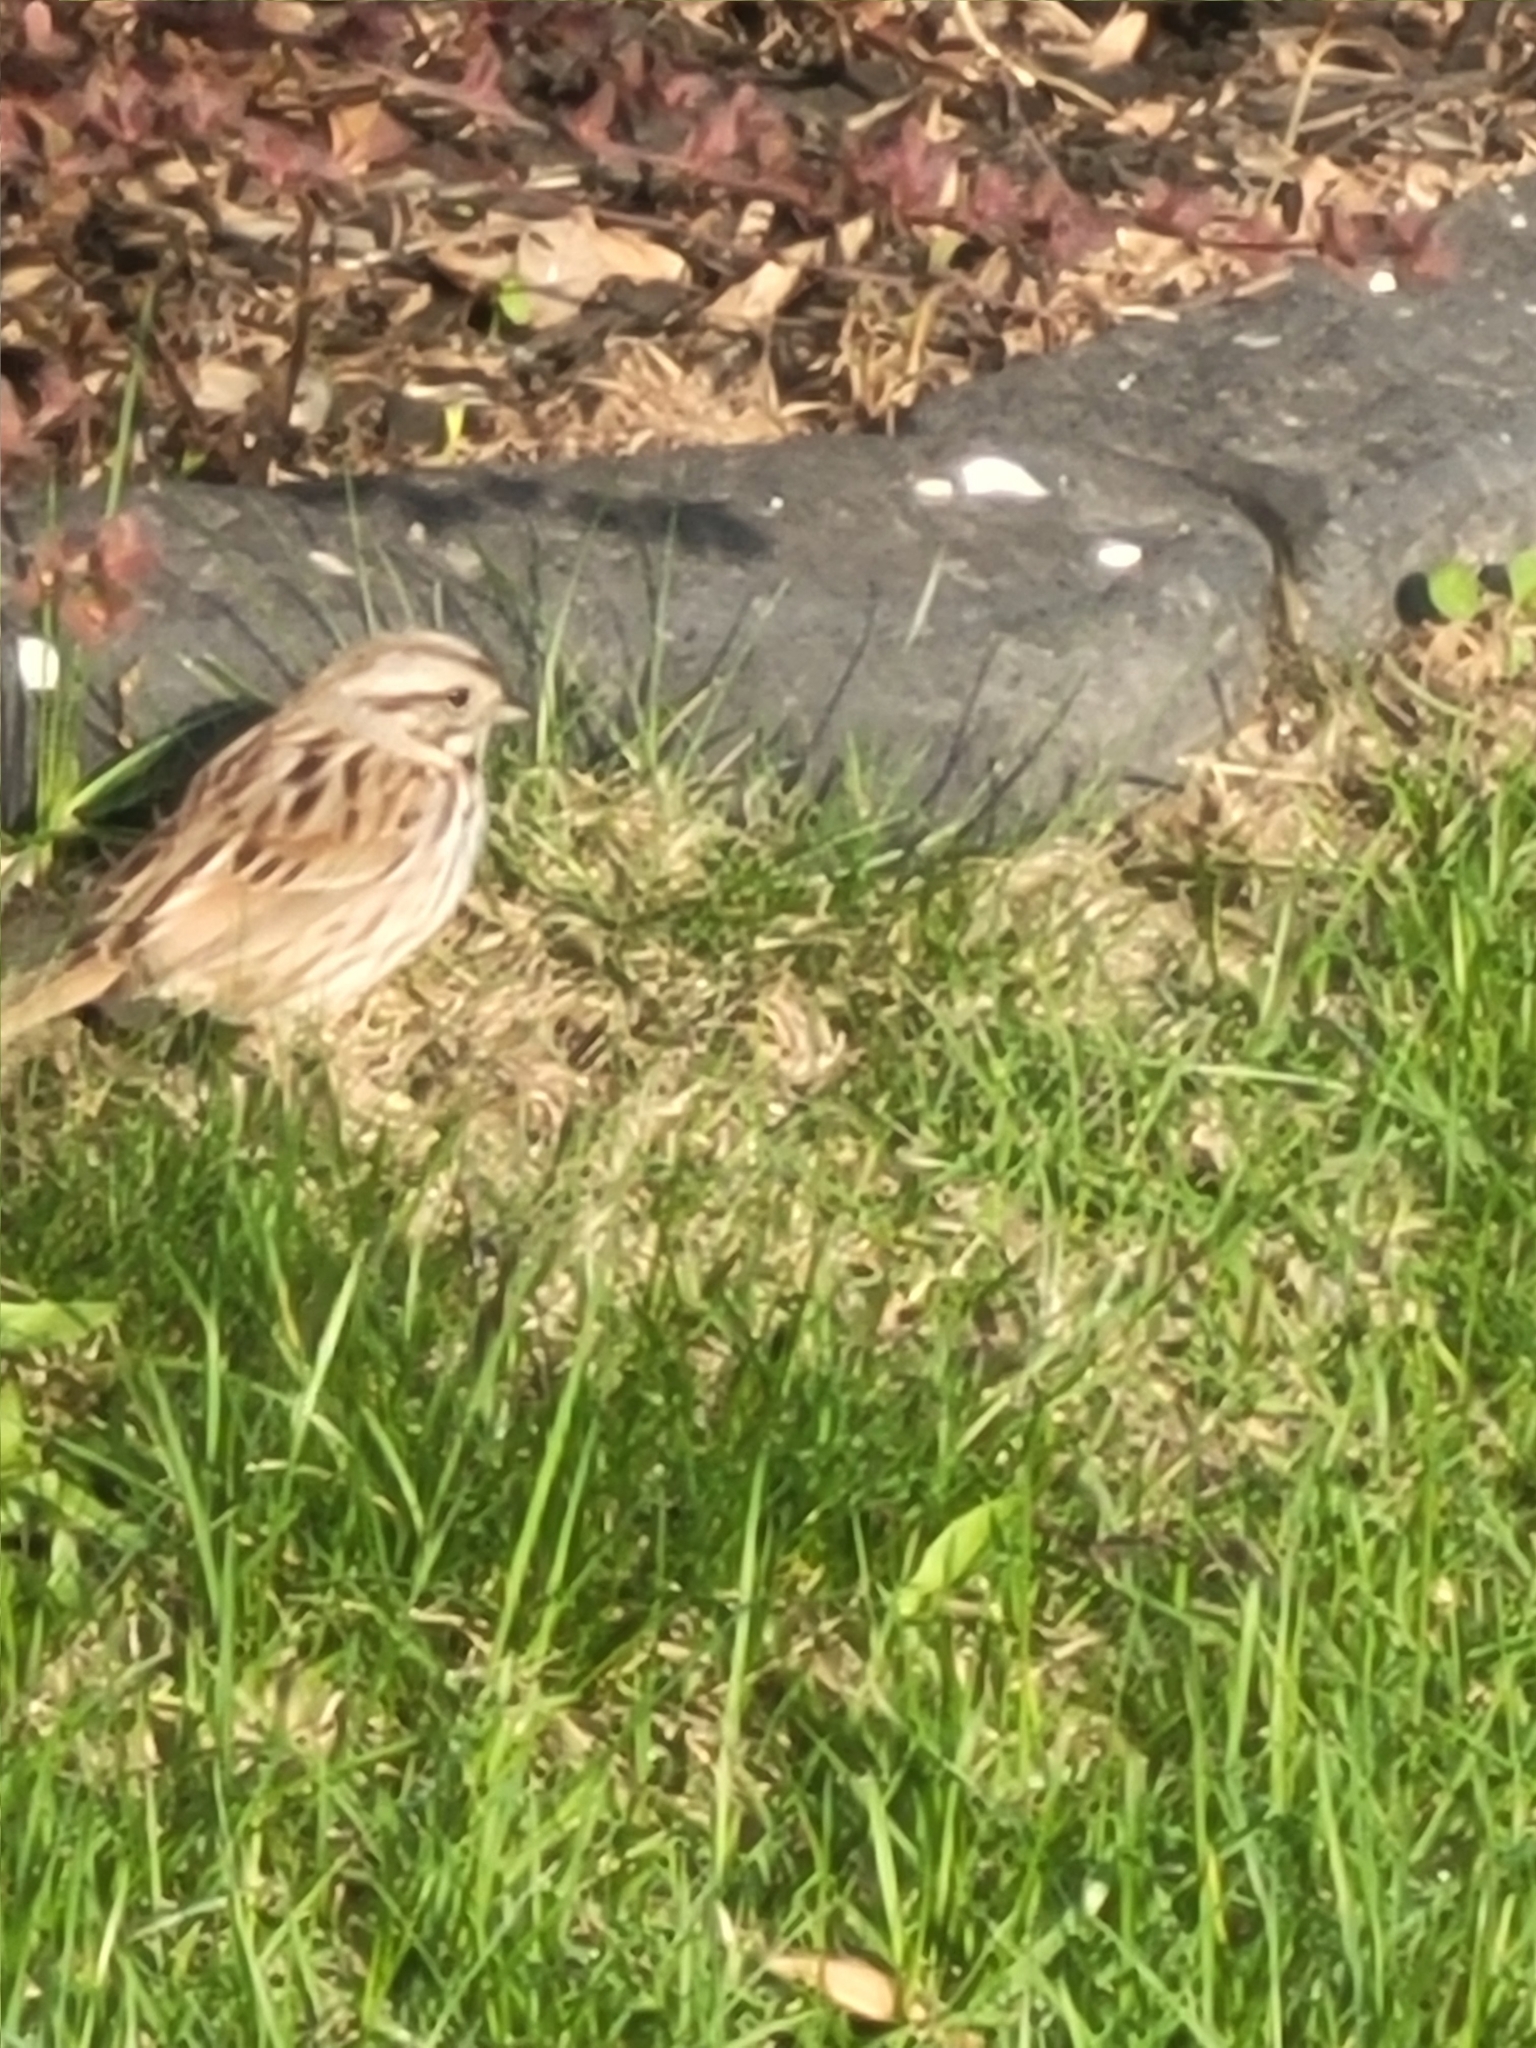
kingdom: Animalia
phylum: Chordata
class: Aves
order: Passeriformes
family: Passerellidae
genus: Melospiza
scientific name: Melospiza melodia
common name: Song sparrow
